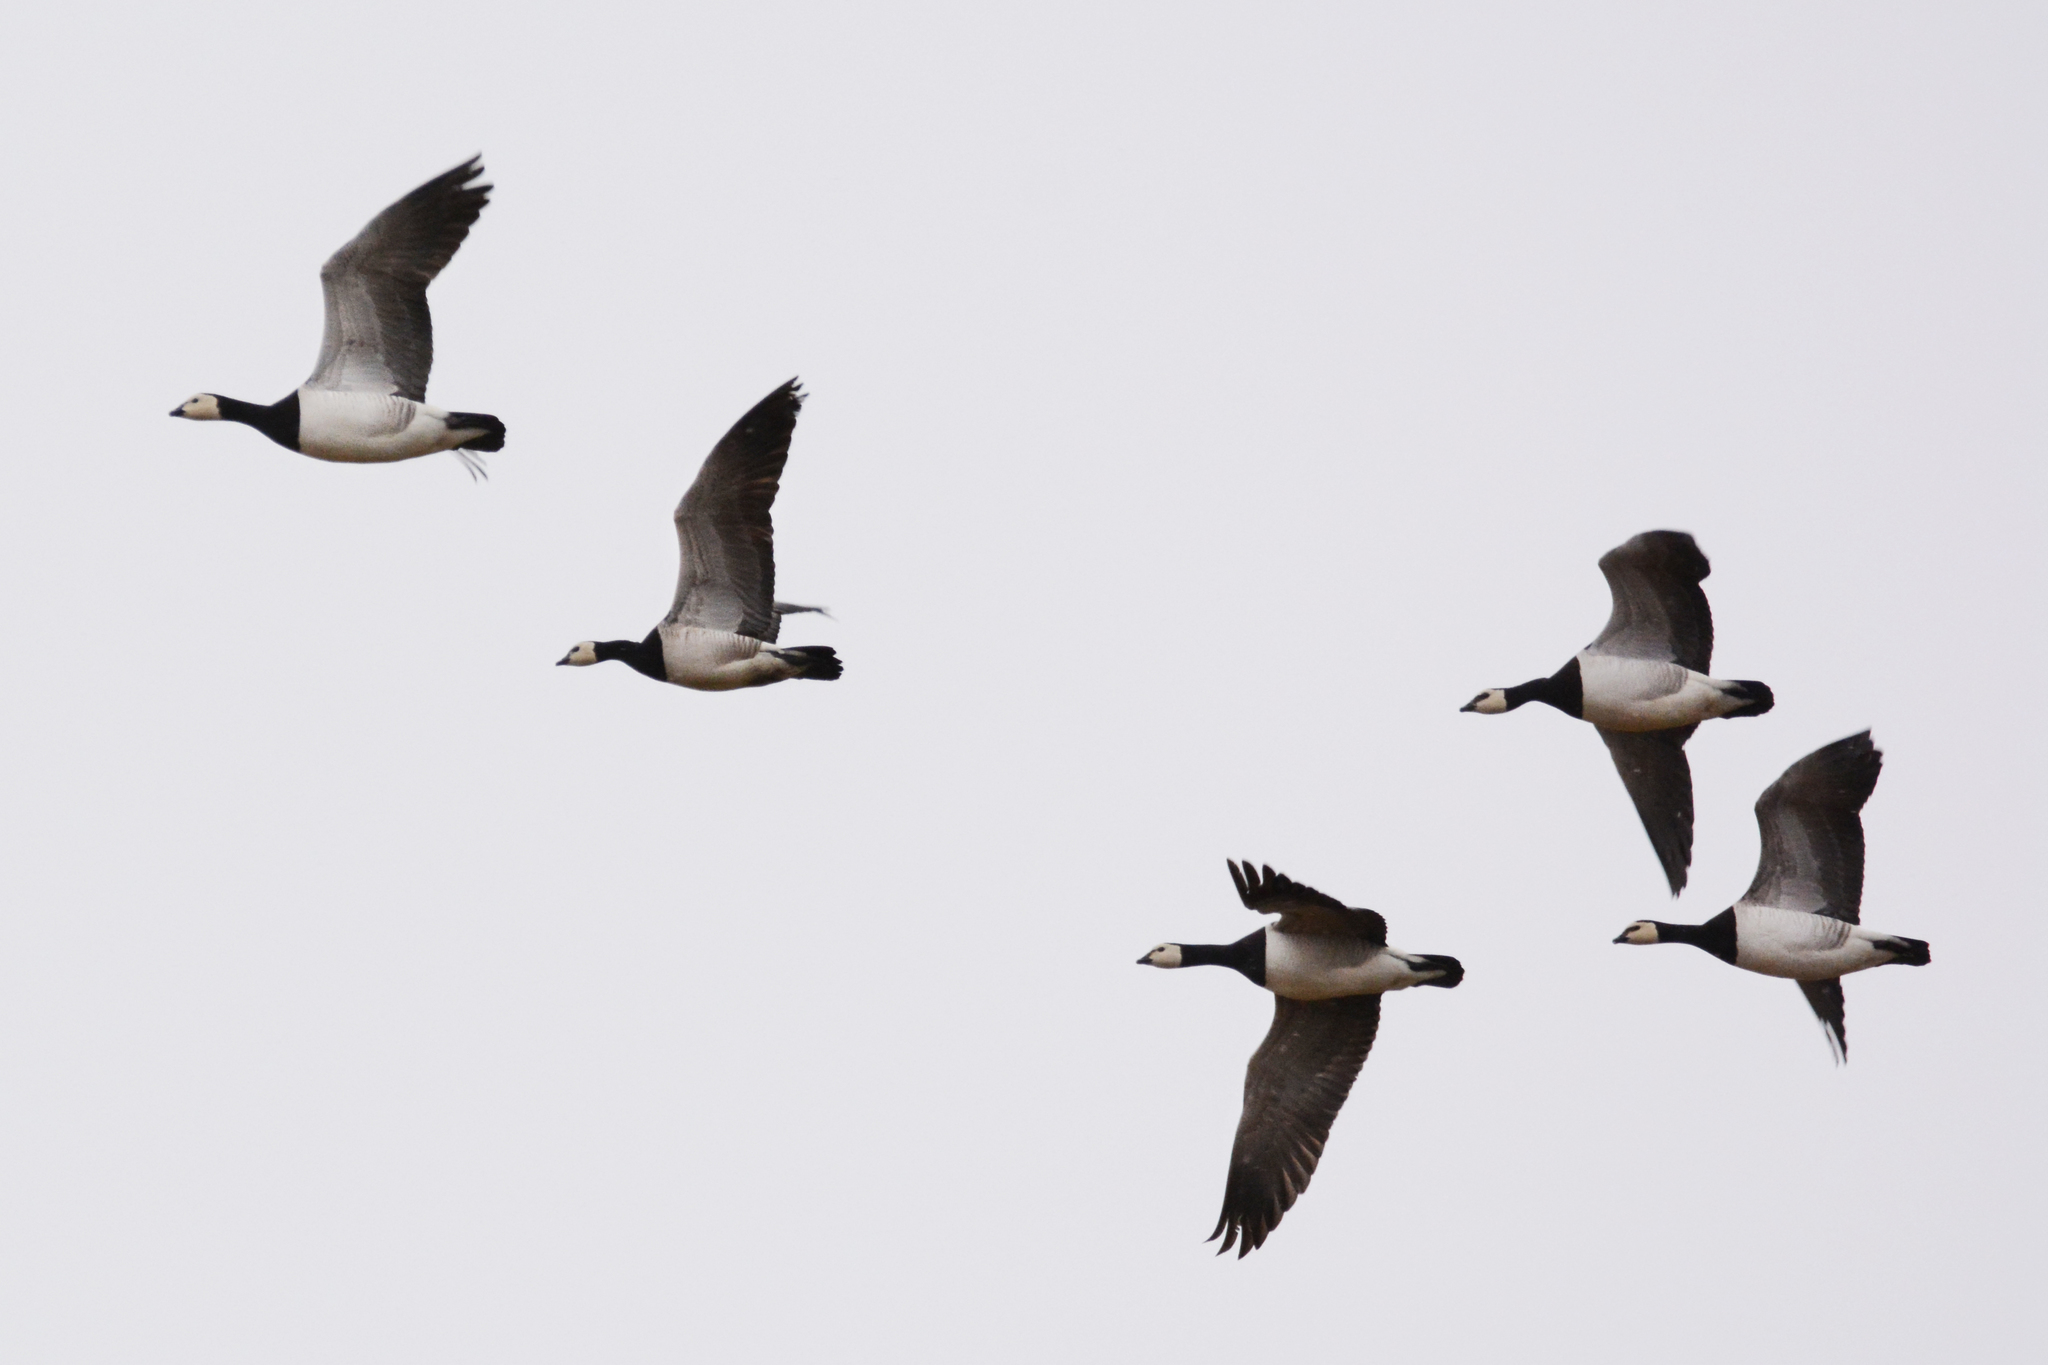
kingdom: Animalia
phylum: Chordata
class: Aves
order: Anseriformes
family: Anatidae
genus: Branta
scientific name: Branta leucopsis
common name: Barnacle goose
